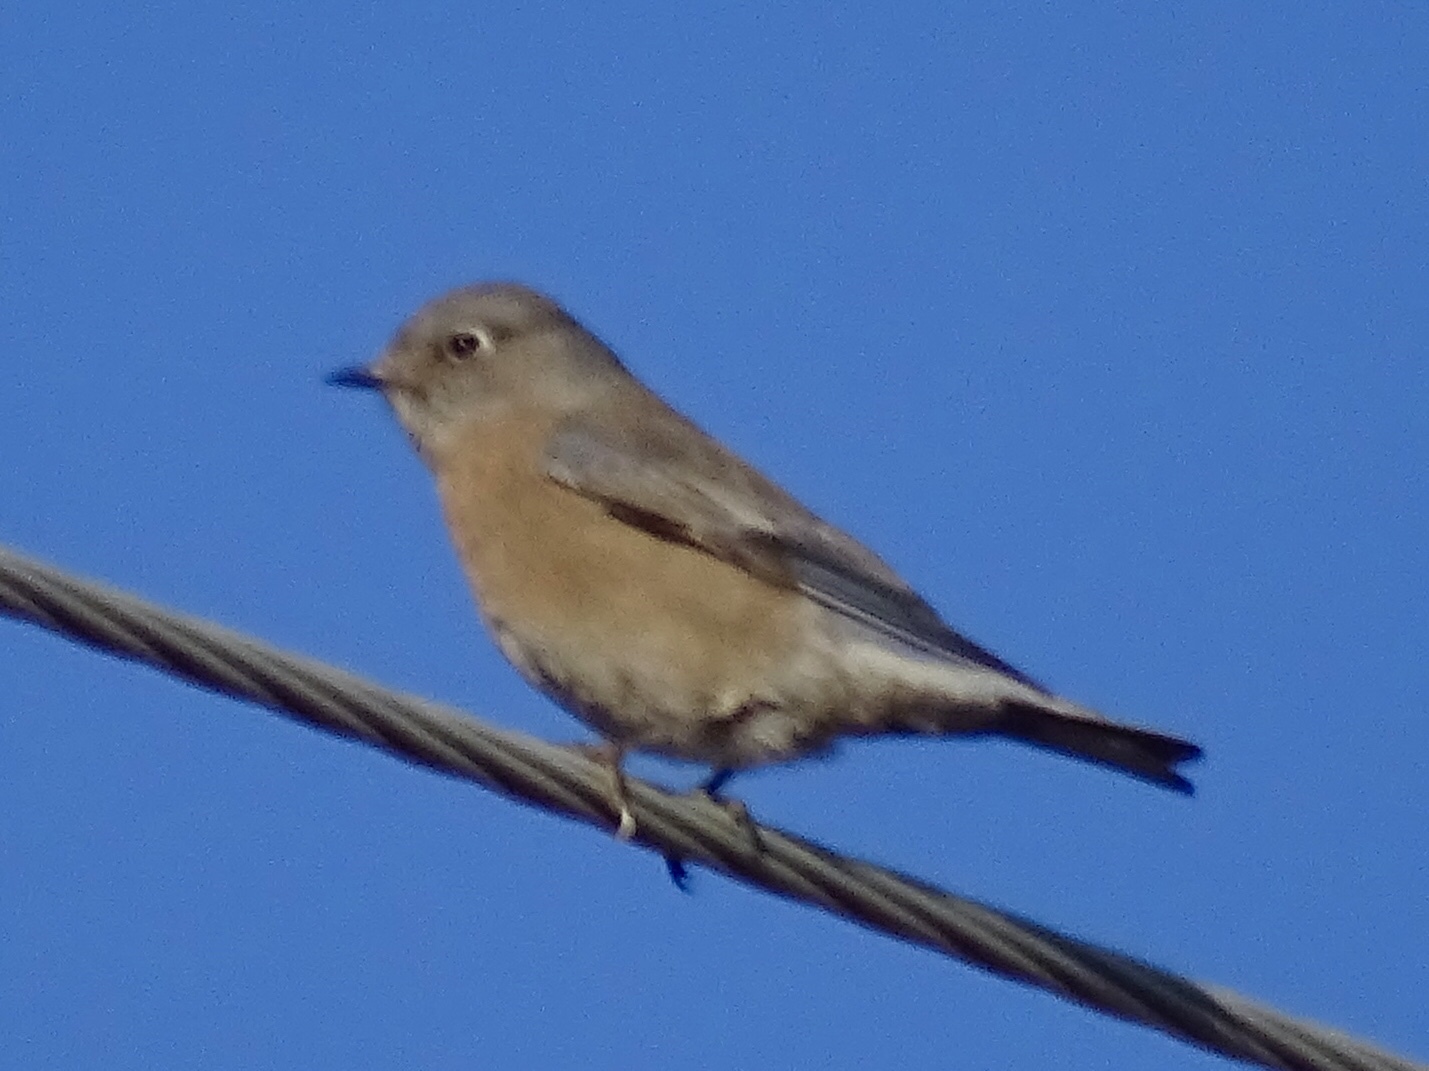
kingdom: Animalia
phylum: Chordata
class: Aves
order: Passeriformes
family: Turdidae
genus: Sialia
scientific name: Sialia mexicana
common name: Western bluebird
